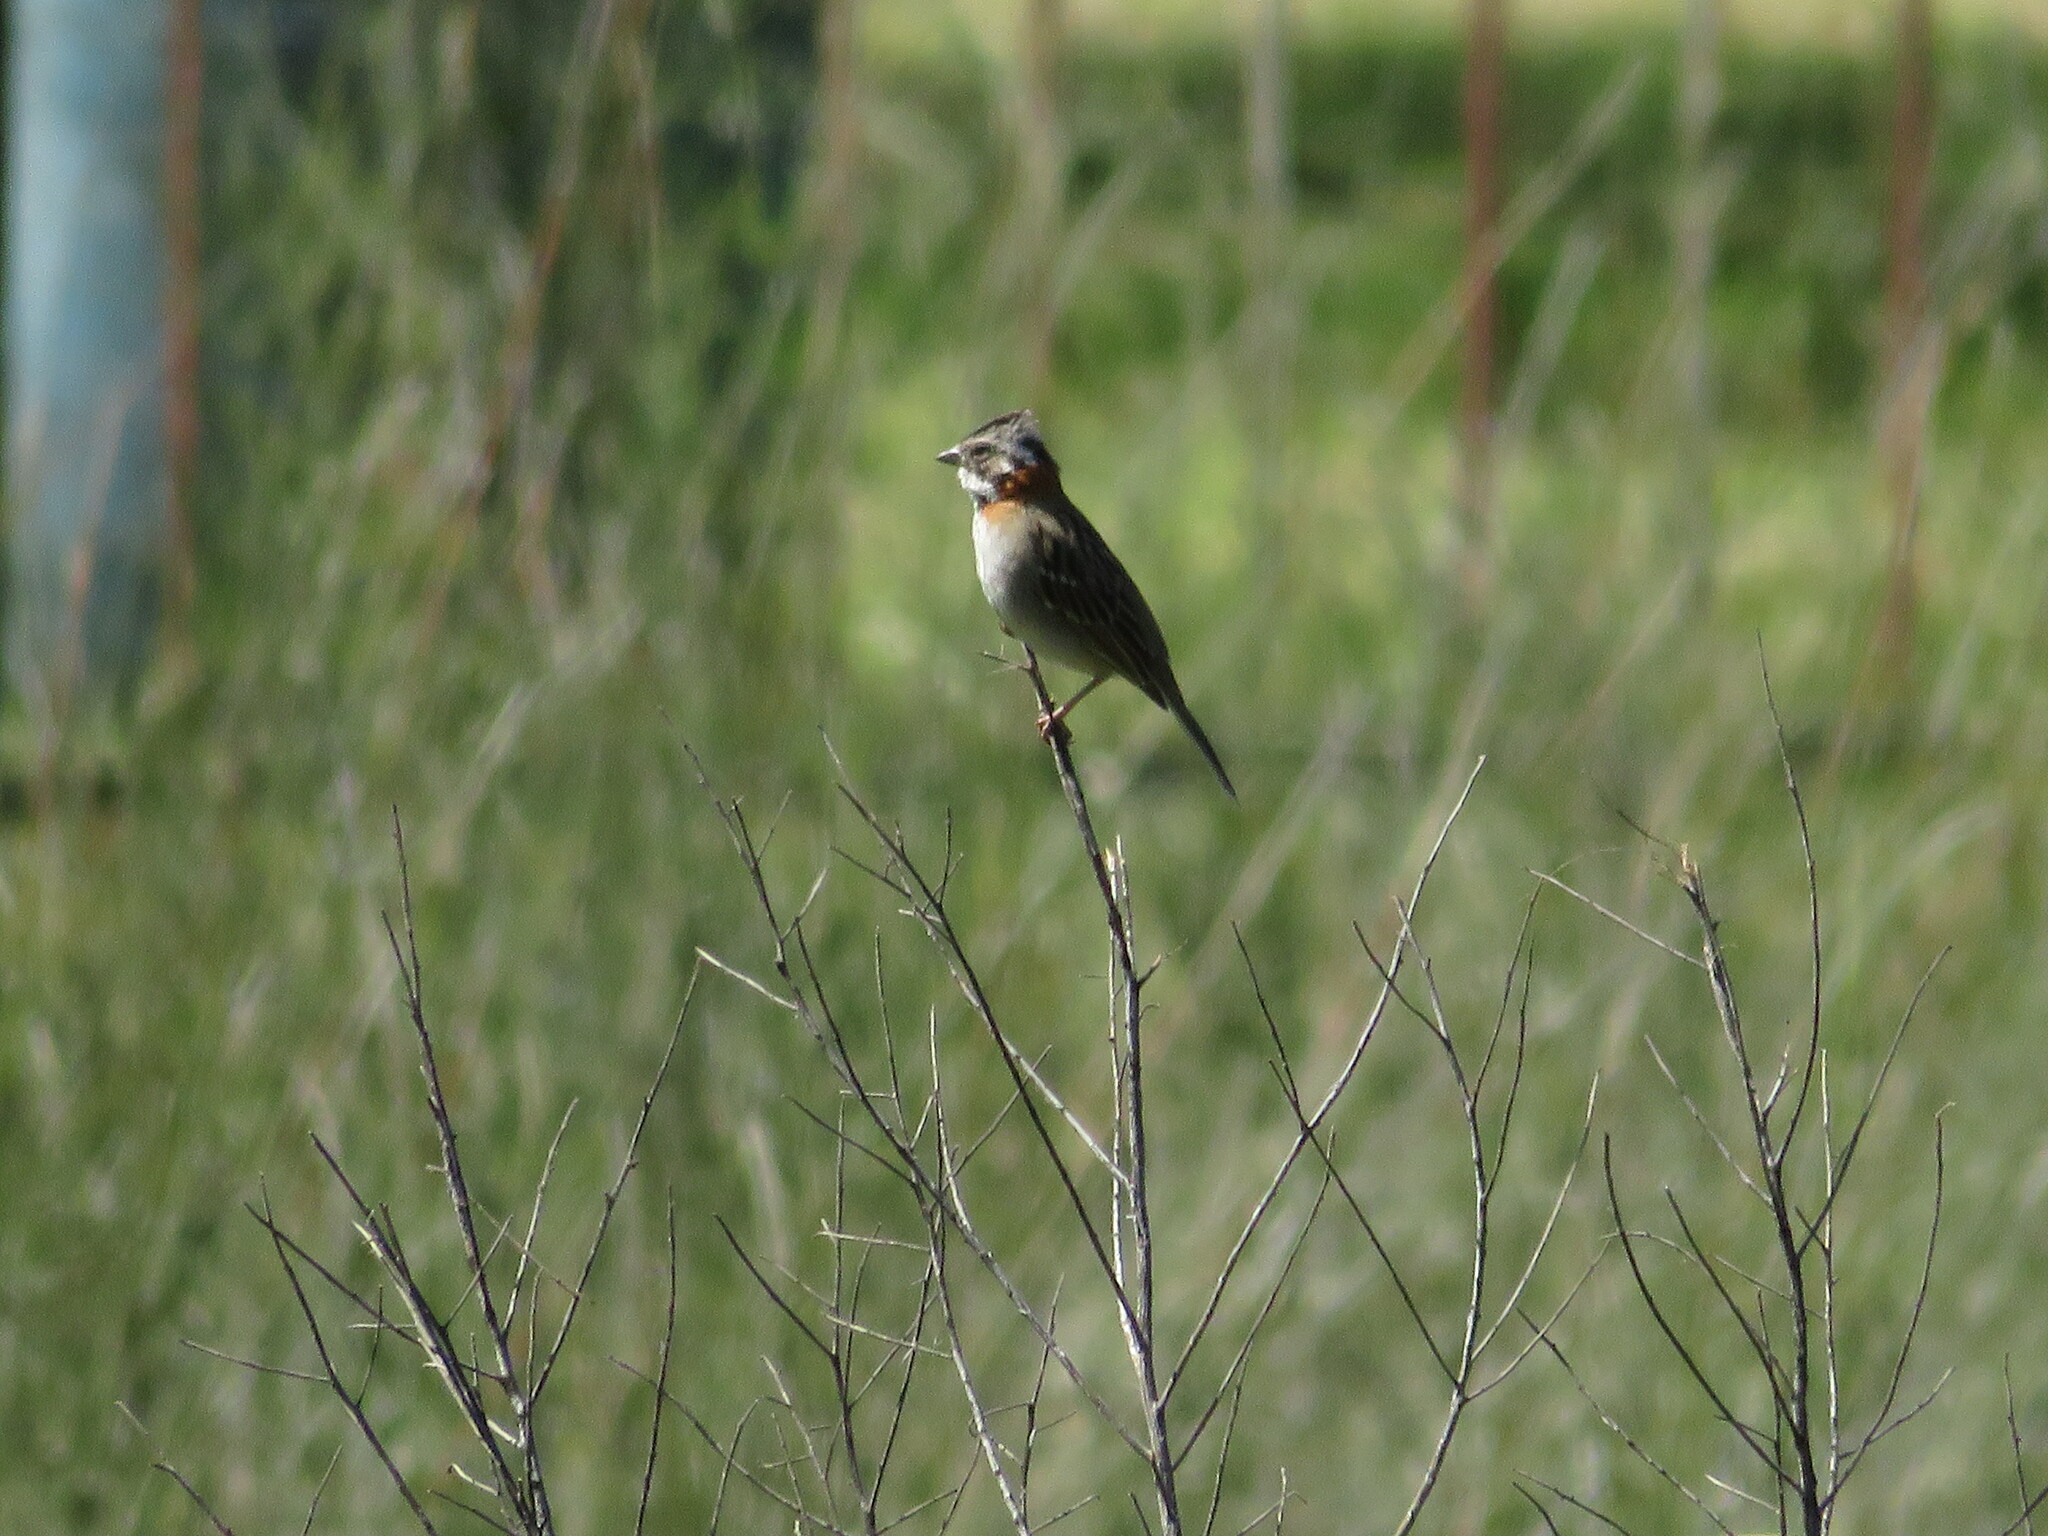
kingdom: Animalia
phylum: Chordata
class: Aves
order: Passeriformes
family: Passerellidae
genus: Zonotrichia
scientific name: Zonotrichia capensis
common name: Rufous-collared sparrow
